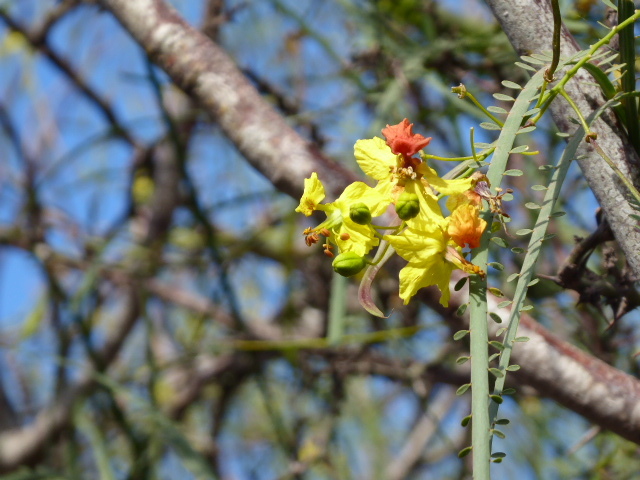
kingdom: Plantae
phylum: Tracheophyta
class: Magnoliopsida
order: Fabales
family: Fabaceae
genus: Parkinsonia
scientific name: Parkinsonia aculeata
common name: Jerusalem thorn
